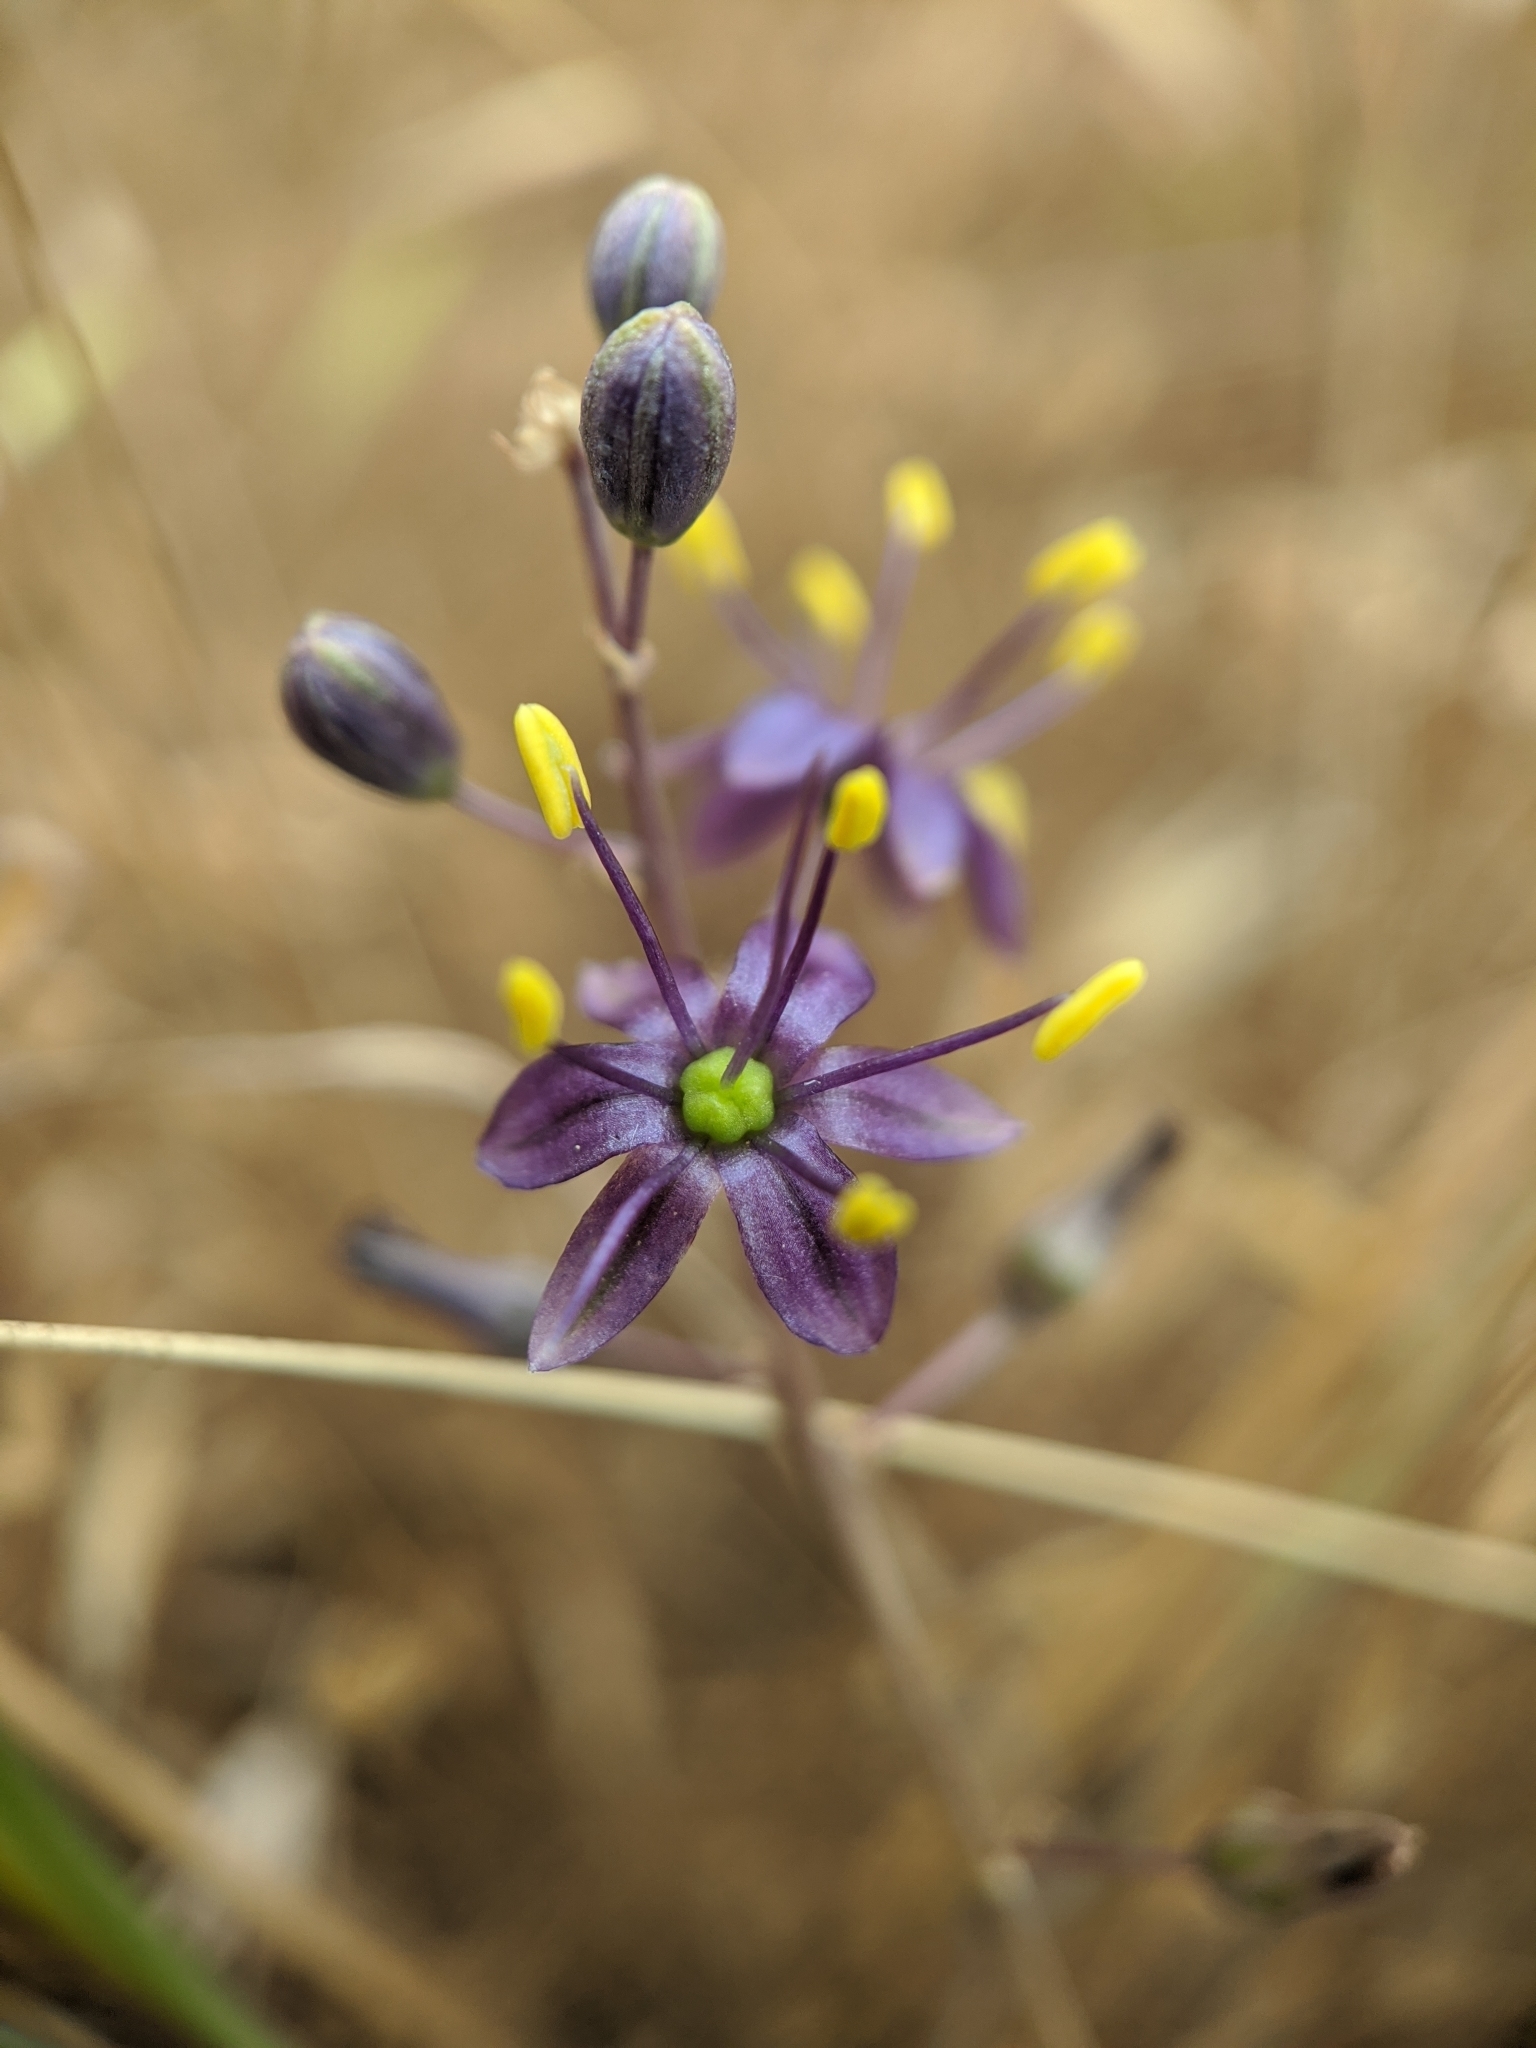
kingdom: Plantae
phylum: Tracheophyta
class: Liliopsida
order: Asparagales
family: Asparagaceae
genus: Hooveria
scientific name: Hooveria purpurea
